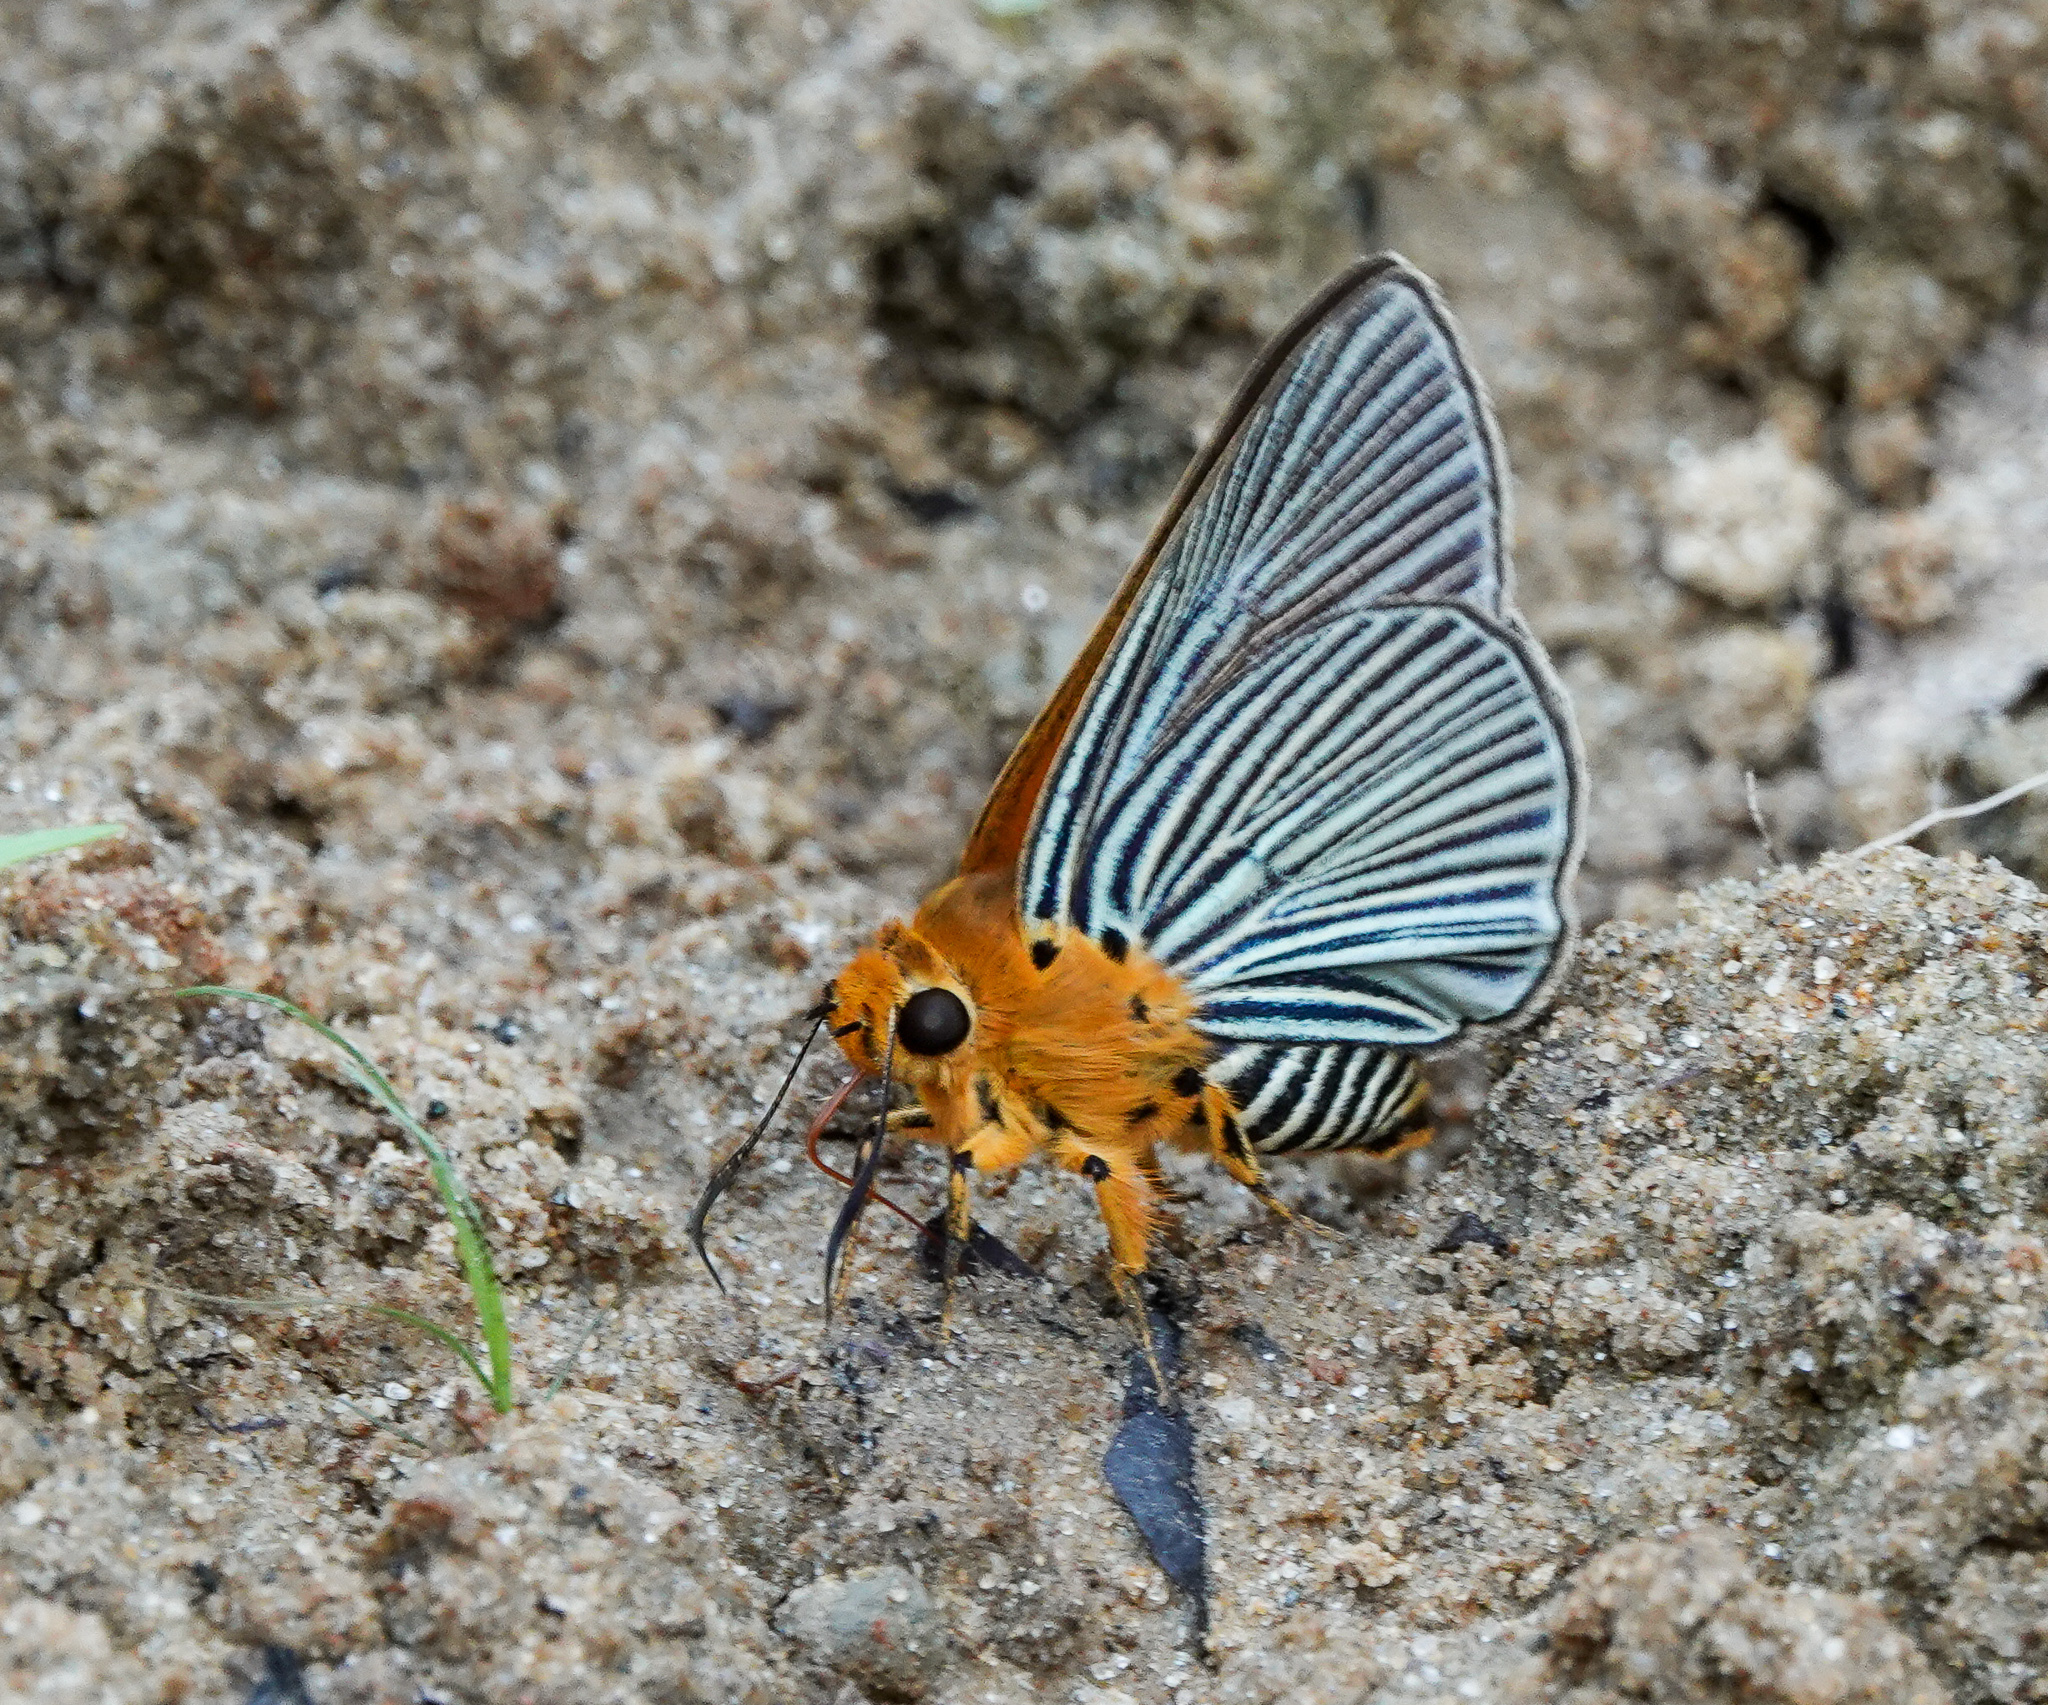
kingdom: Animalia
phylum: Arthropoda
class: Insecta
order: Lepidoptera
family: Hesperiidae
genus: Bibasis
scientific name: Bibasis amara
